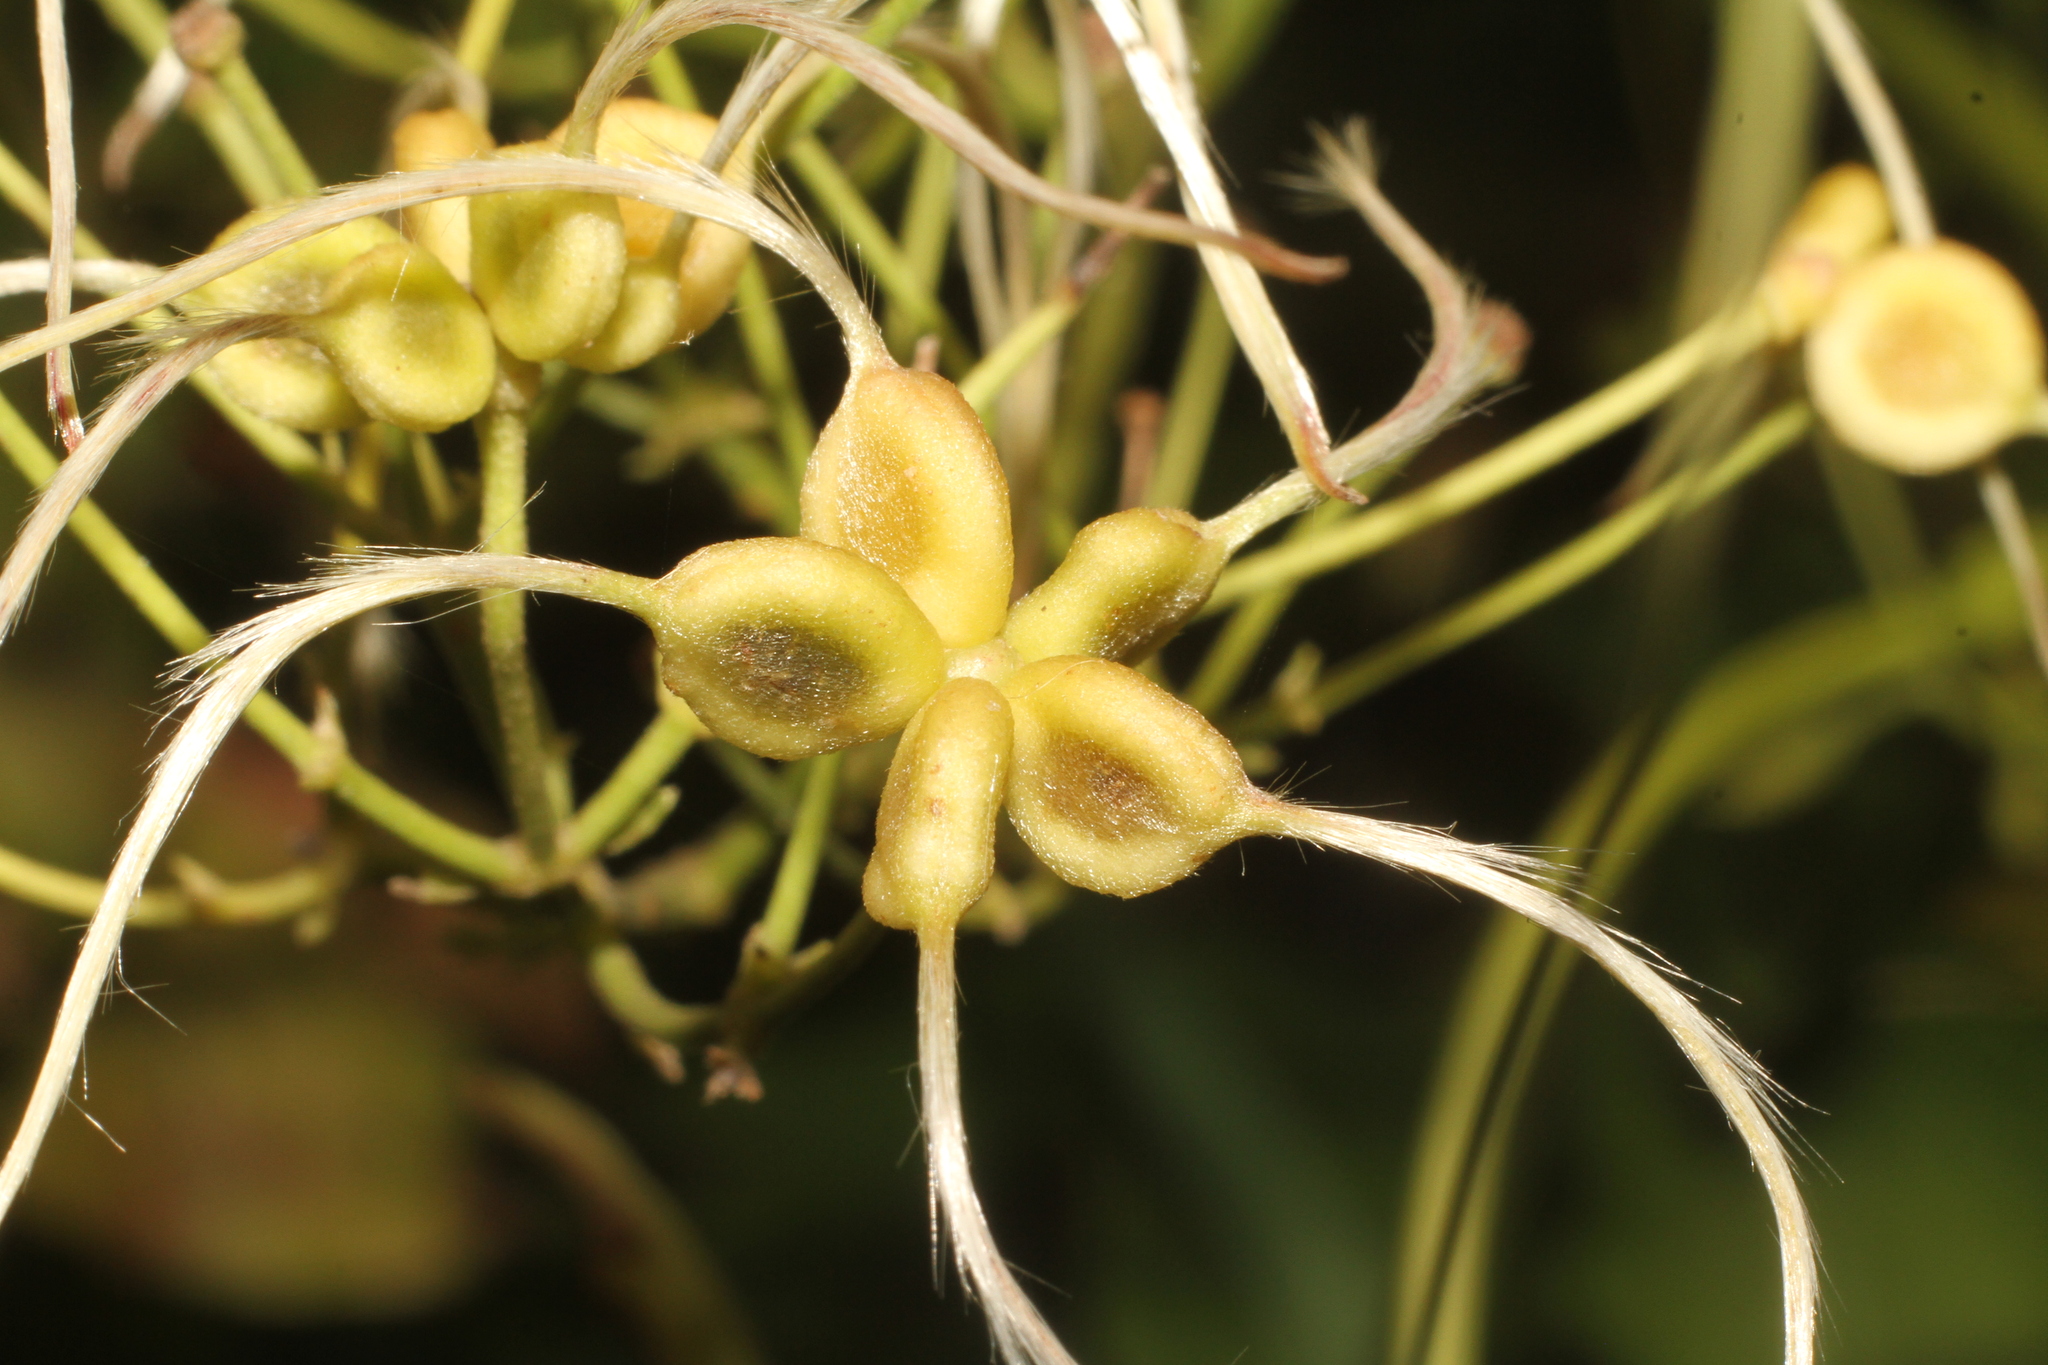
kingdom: Plantae
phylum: Tracheophyta
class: Magnoliopsida
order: Ranunculales
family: Ranunculaceae
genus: Clematis
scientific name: Clematis flammula
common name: Virgin's-bower
